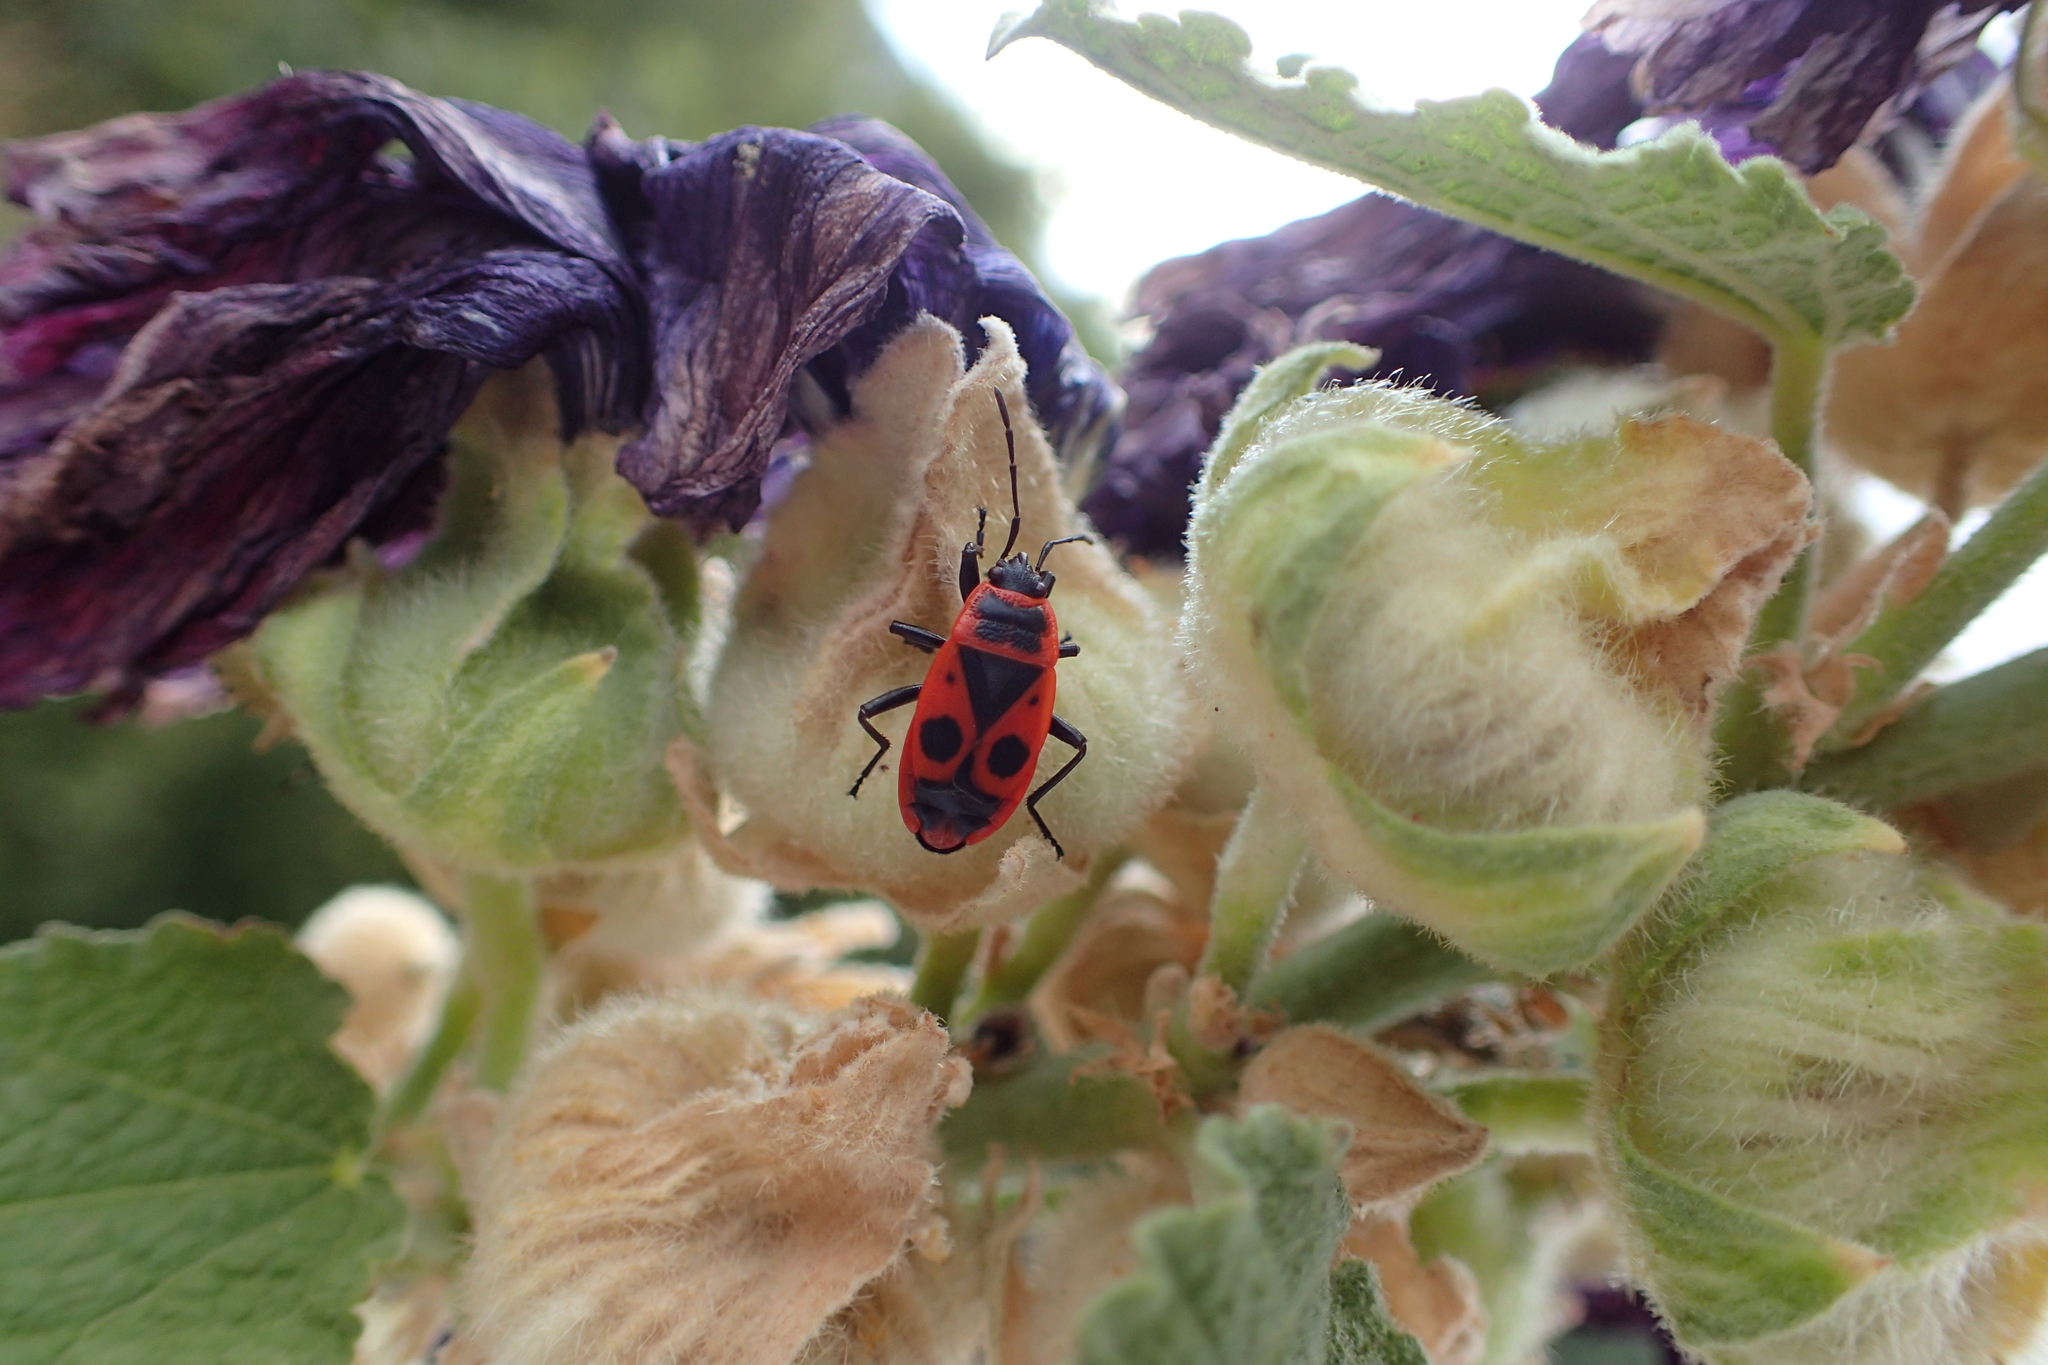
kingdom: Animalia
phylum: Arthropoda
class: Insecta
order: Hemiptera
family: Pyrrhocoridae
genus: Pyrrhocoris
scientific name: Pyrrhocoris apterus
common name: Firebug
